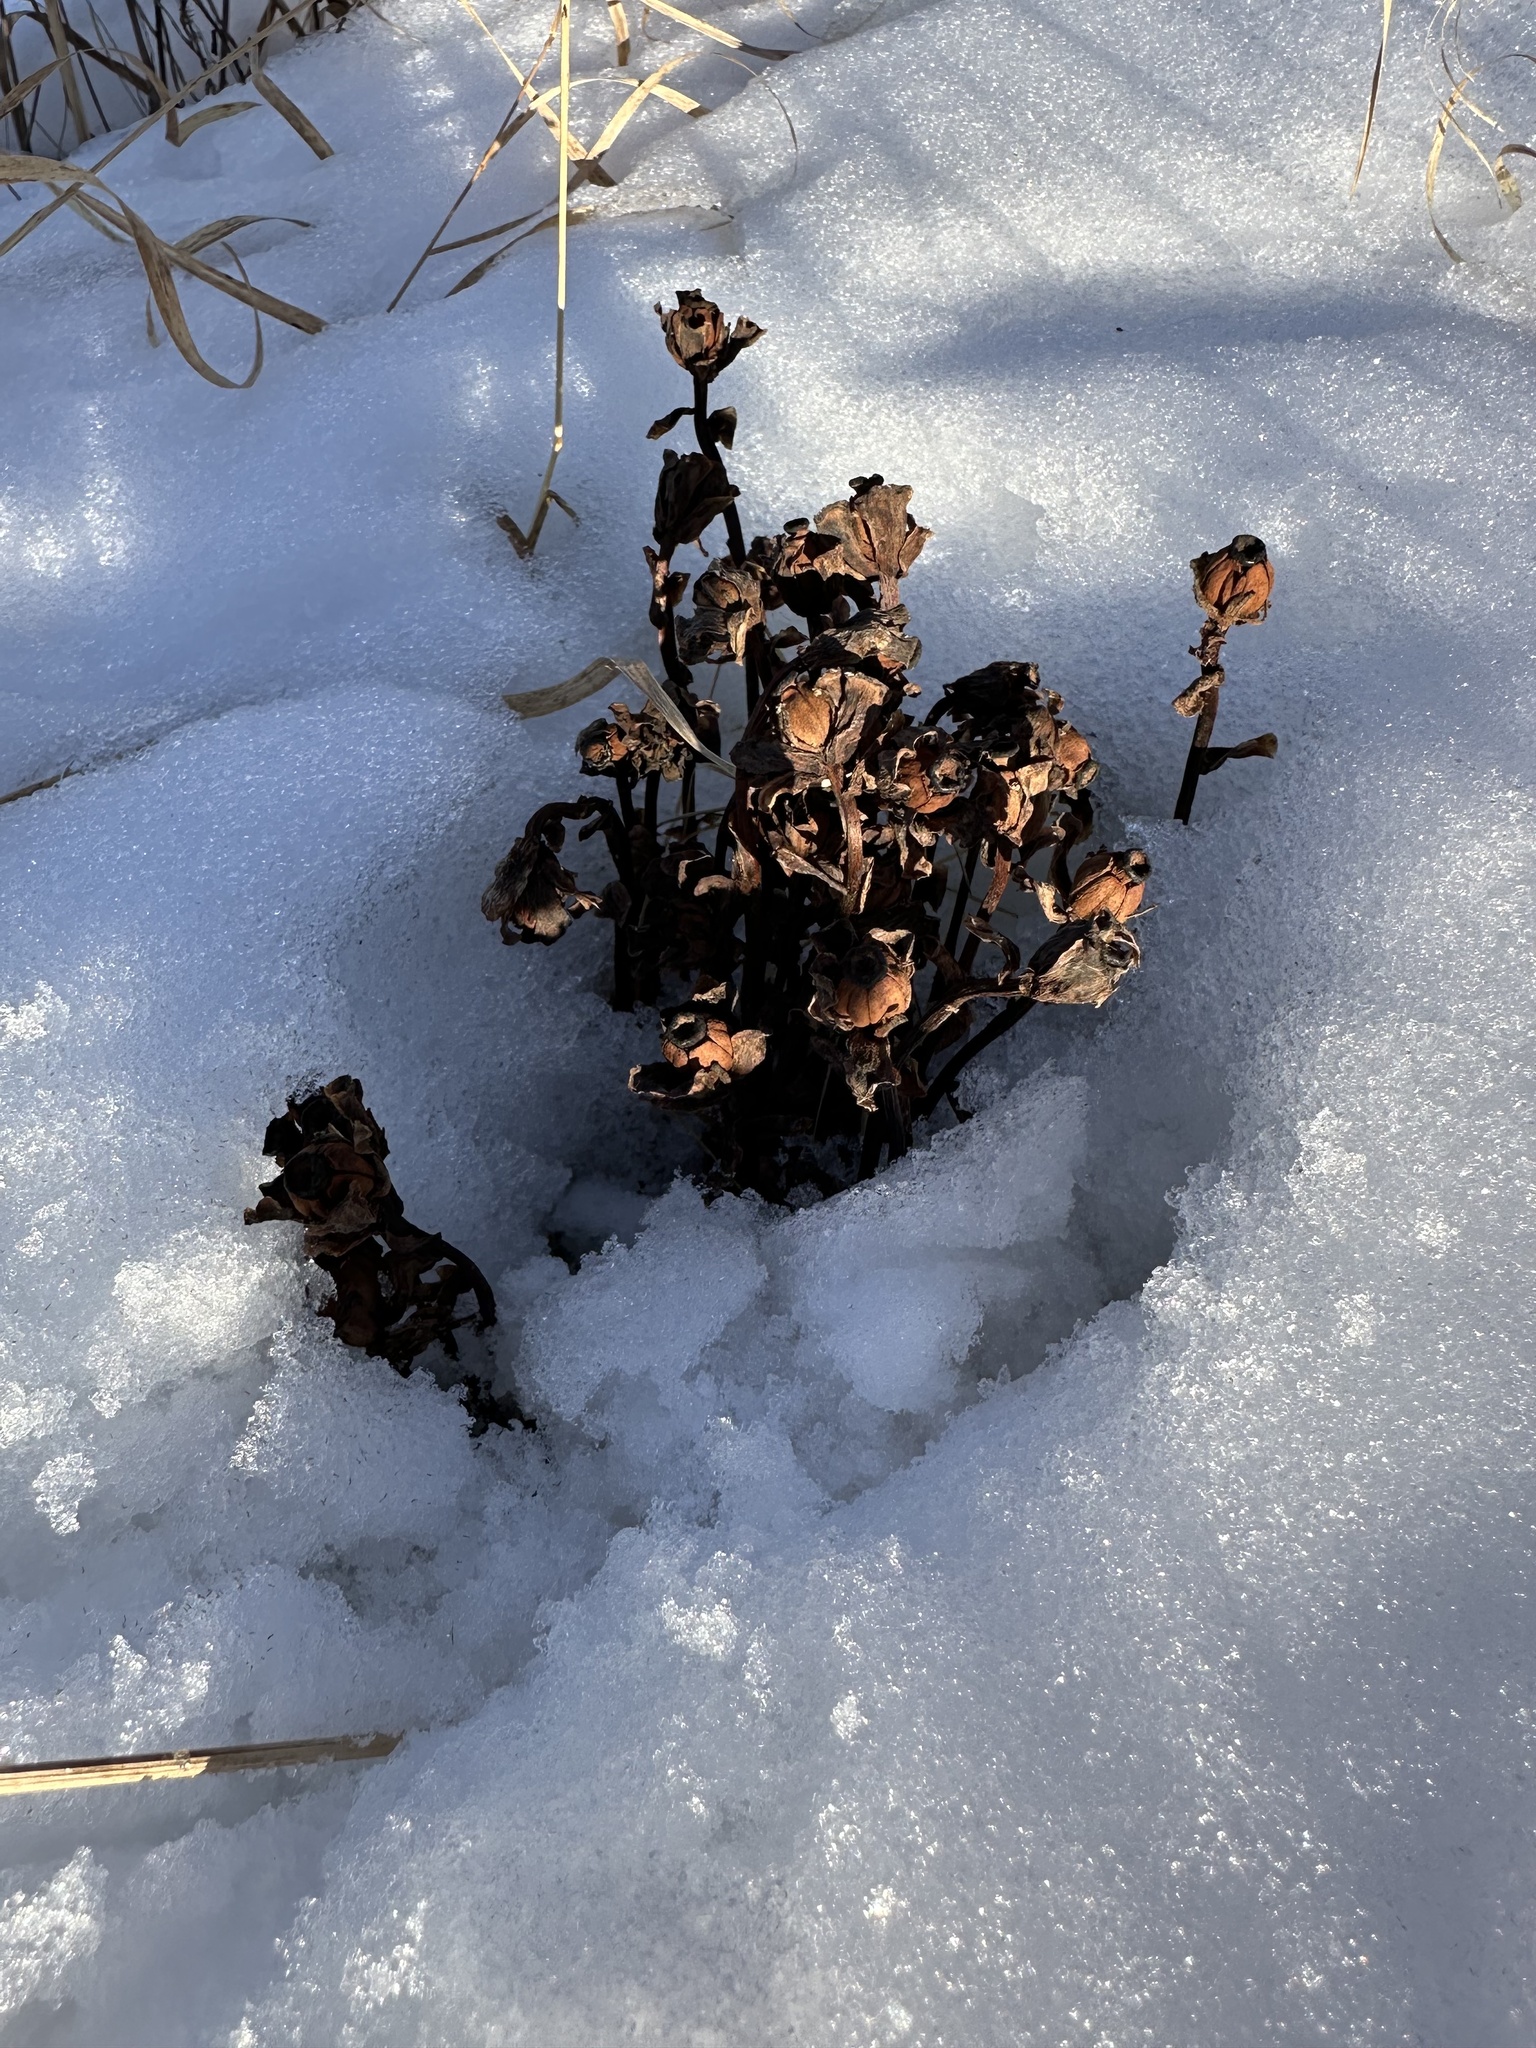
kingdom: Plantae
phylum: Tracheophyta
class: Magnoliopsida
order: Ericales
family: Ericaceae
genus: Monotropa
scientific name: Monotropa uniflora
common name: Convulsion root
